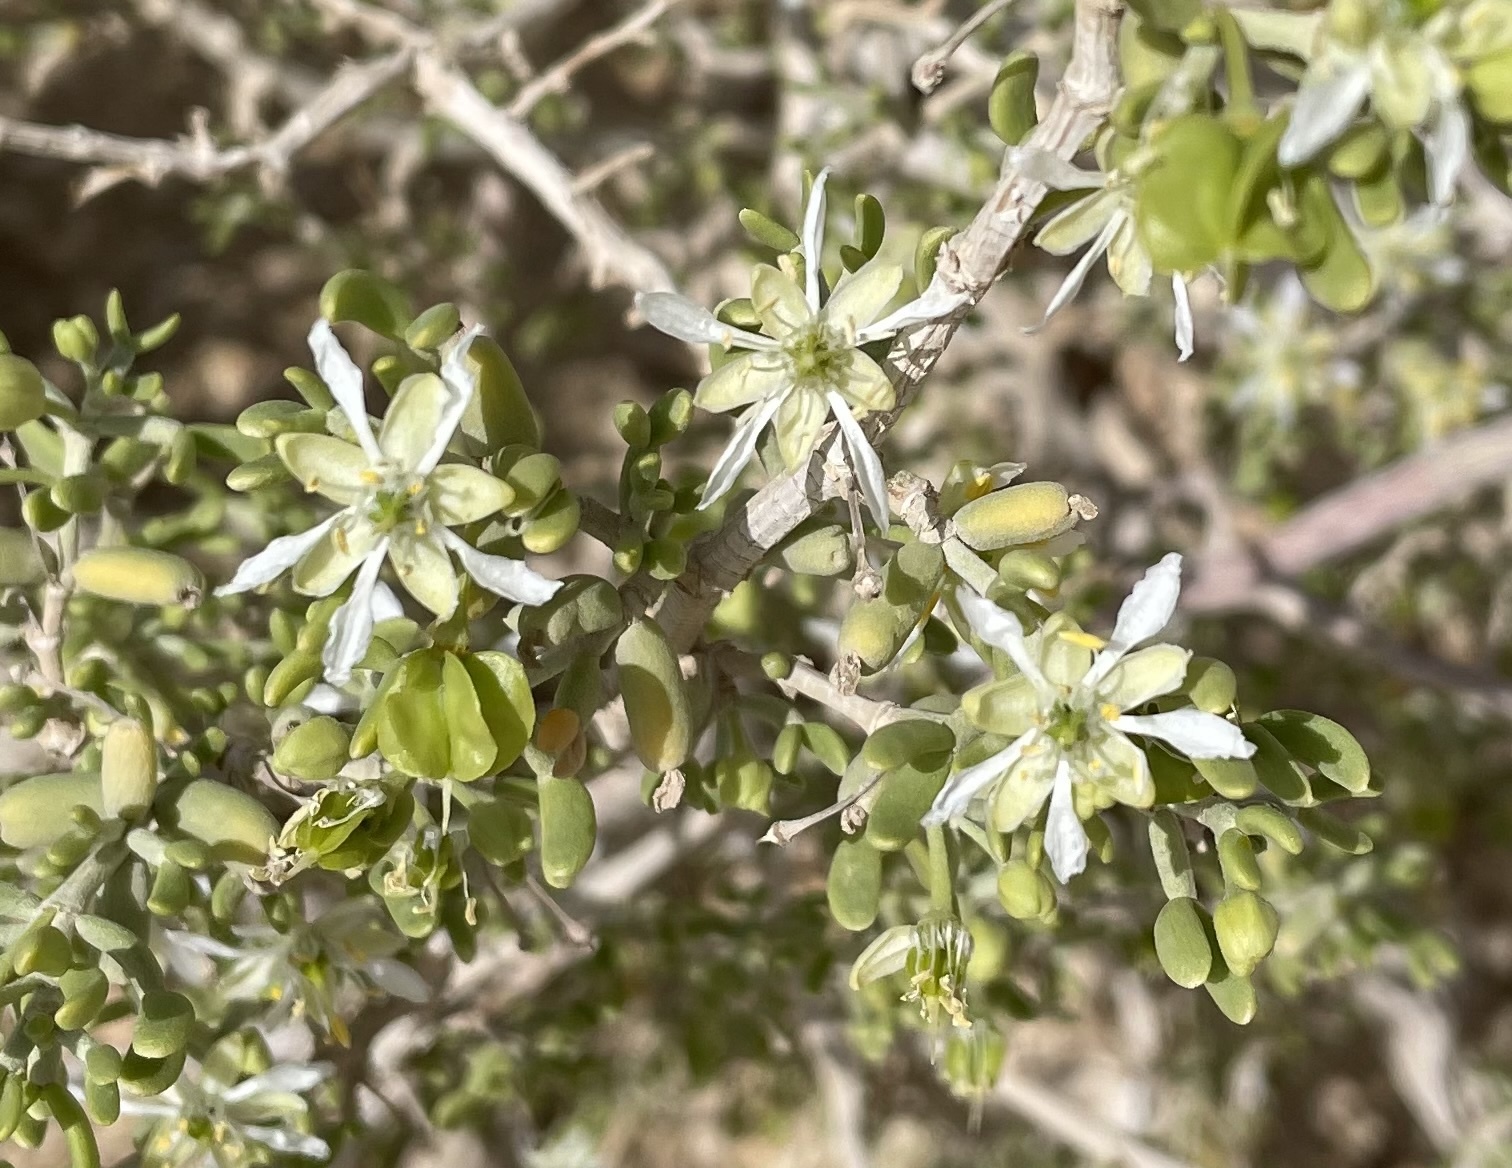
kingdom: Plantae
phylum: Tracheophyta
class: Magnoliopsida
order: Zygophyllales
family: Zygophyllaceae
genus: Tetraena
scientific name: Tetraena dumosa
